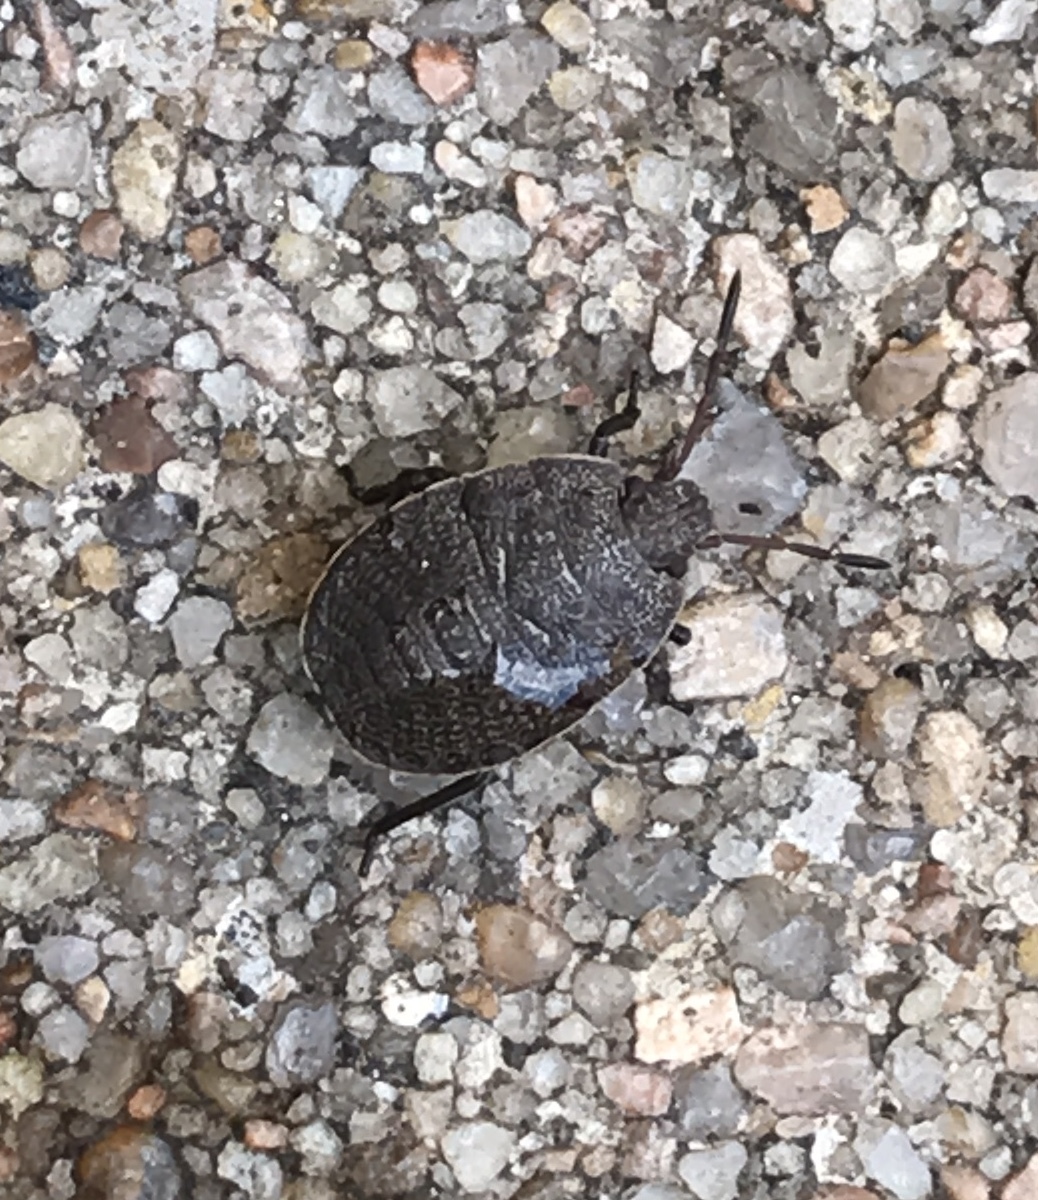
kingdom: Animalia
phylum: Arthropoda
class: Insecta
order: Hemiptera
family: Pentatomidae
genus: Menecles
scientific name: Menecles insertus
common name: Elf shoe stink bug
